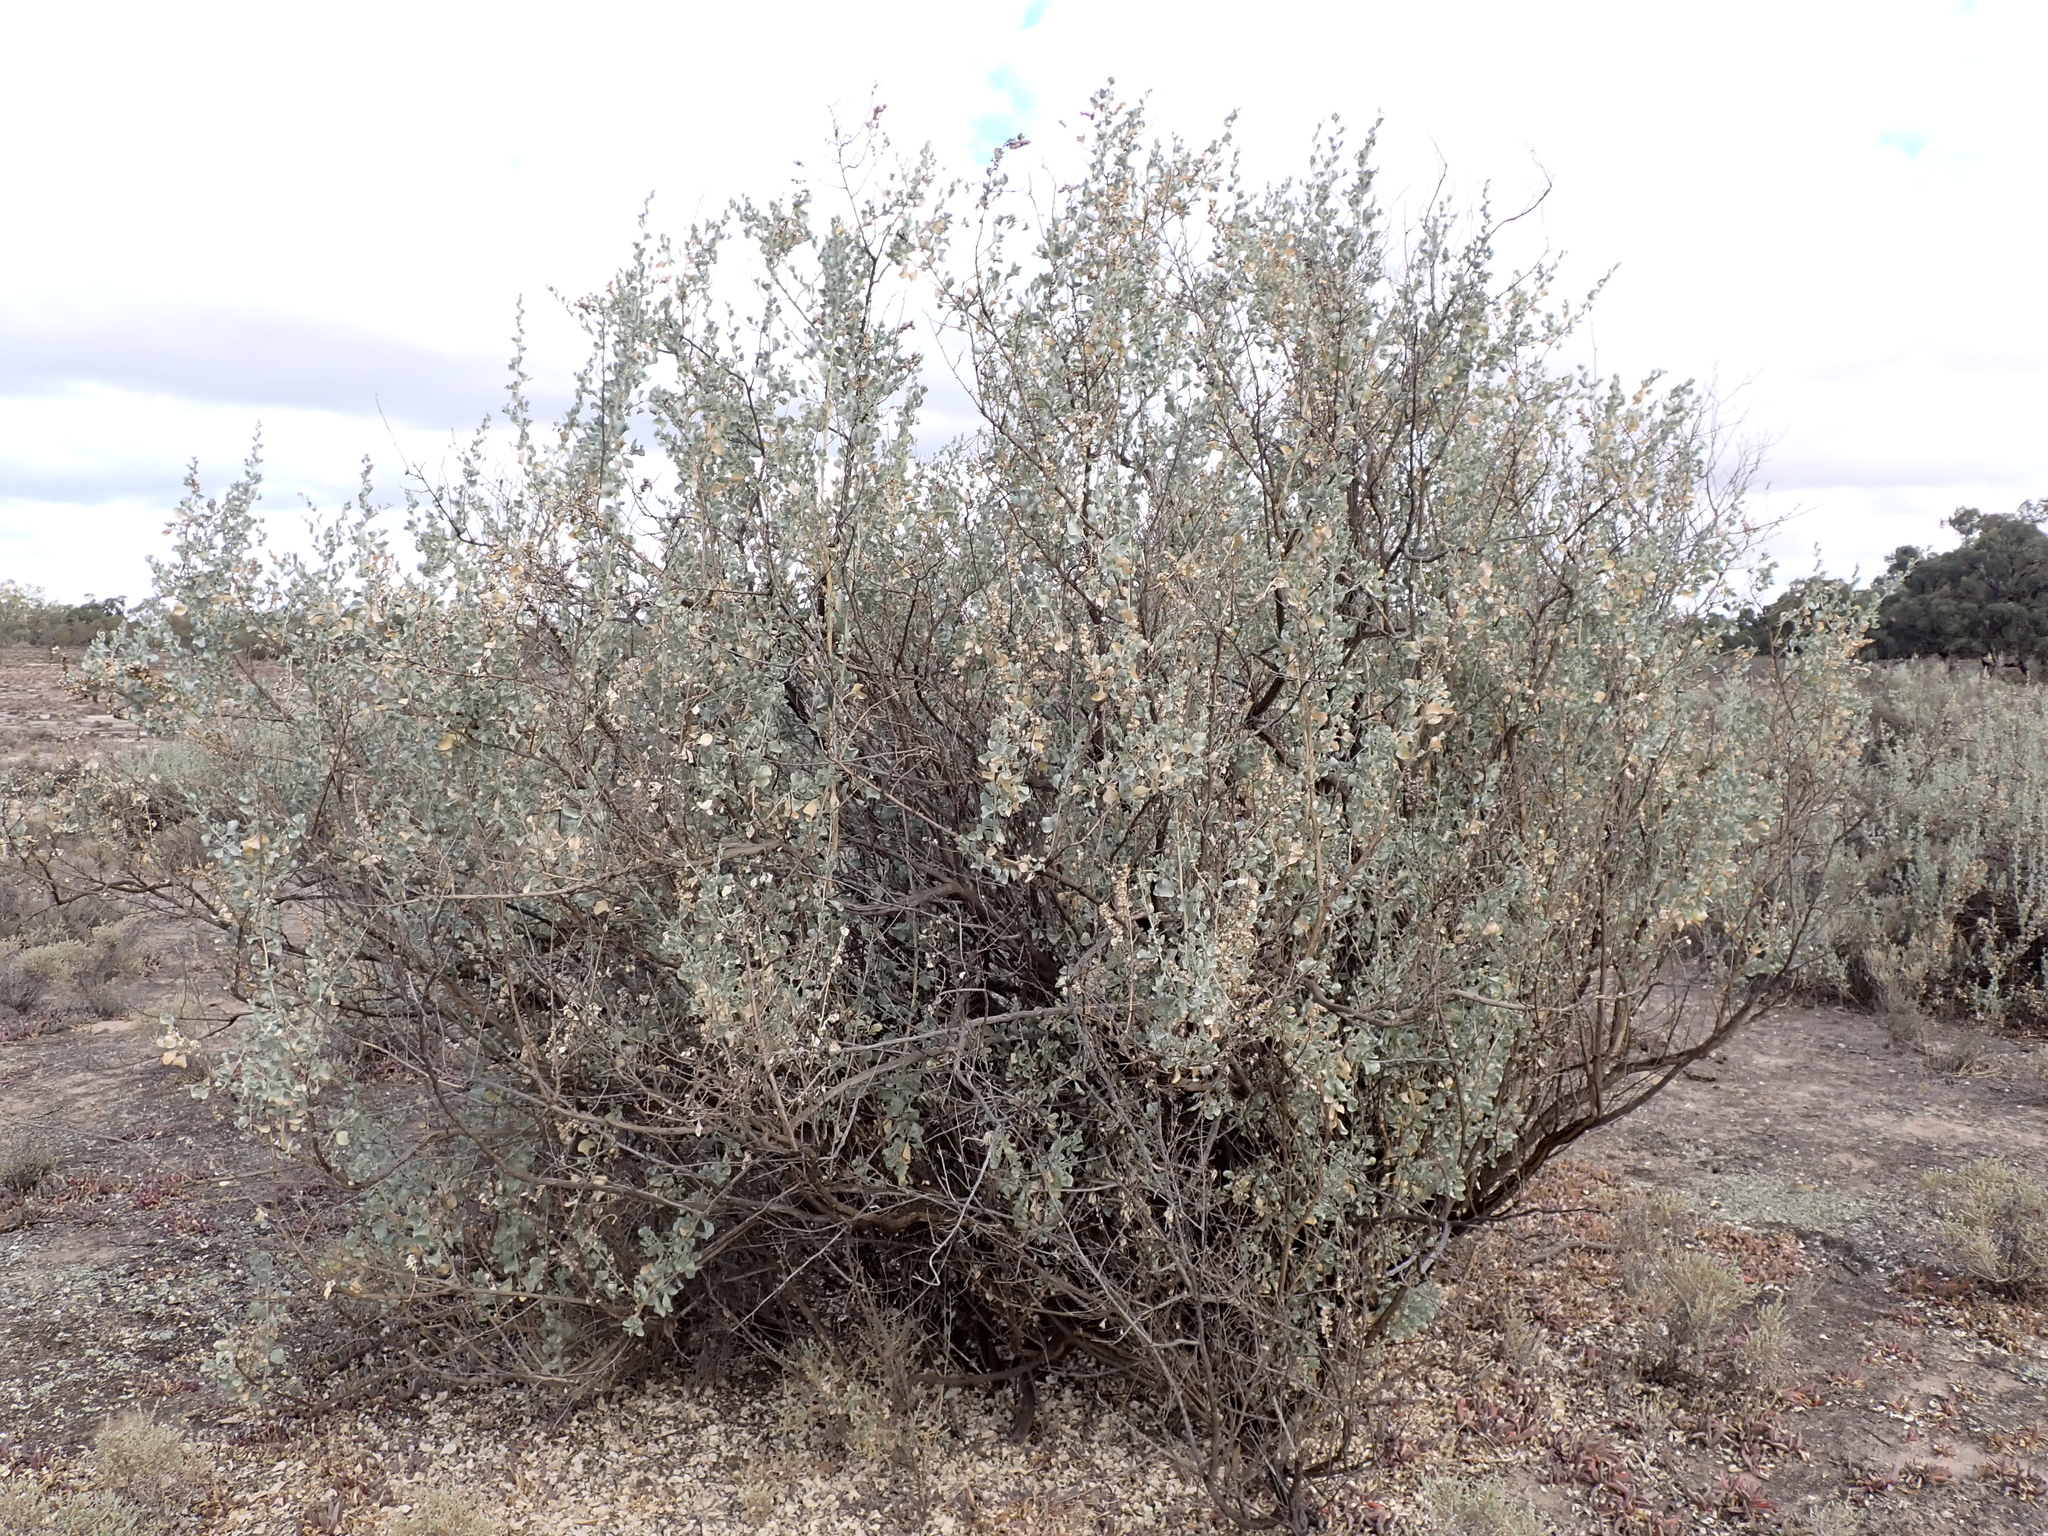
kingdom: Plantae
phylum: Tracheophyta
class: Magnoliopsida
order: Caryophyllales
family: Amaranthaceae
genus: Atriplex
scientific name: Atriplex nummularia
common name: Bluegreen saltbush
